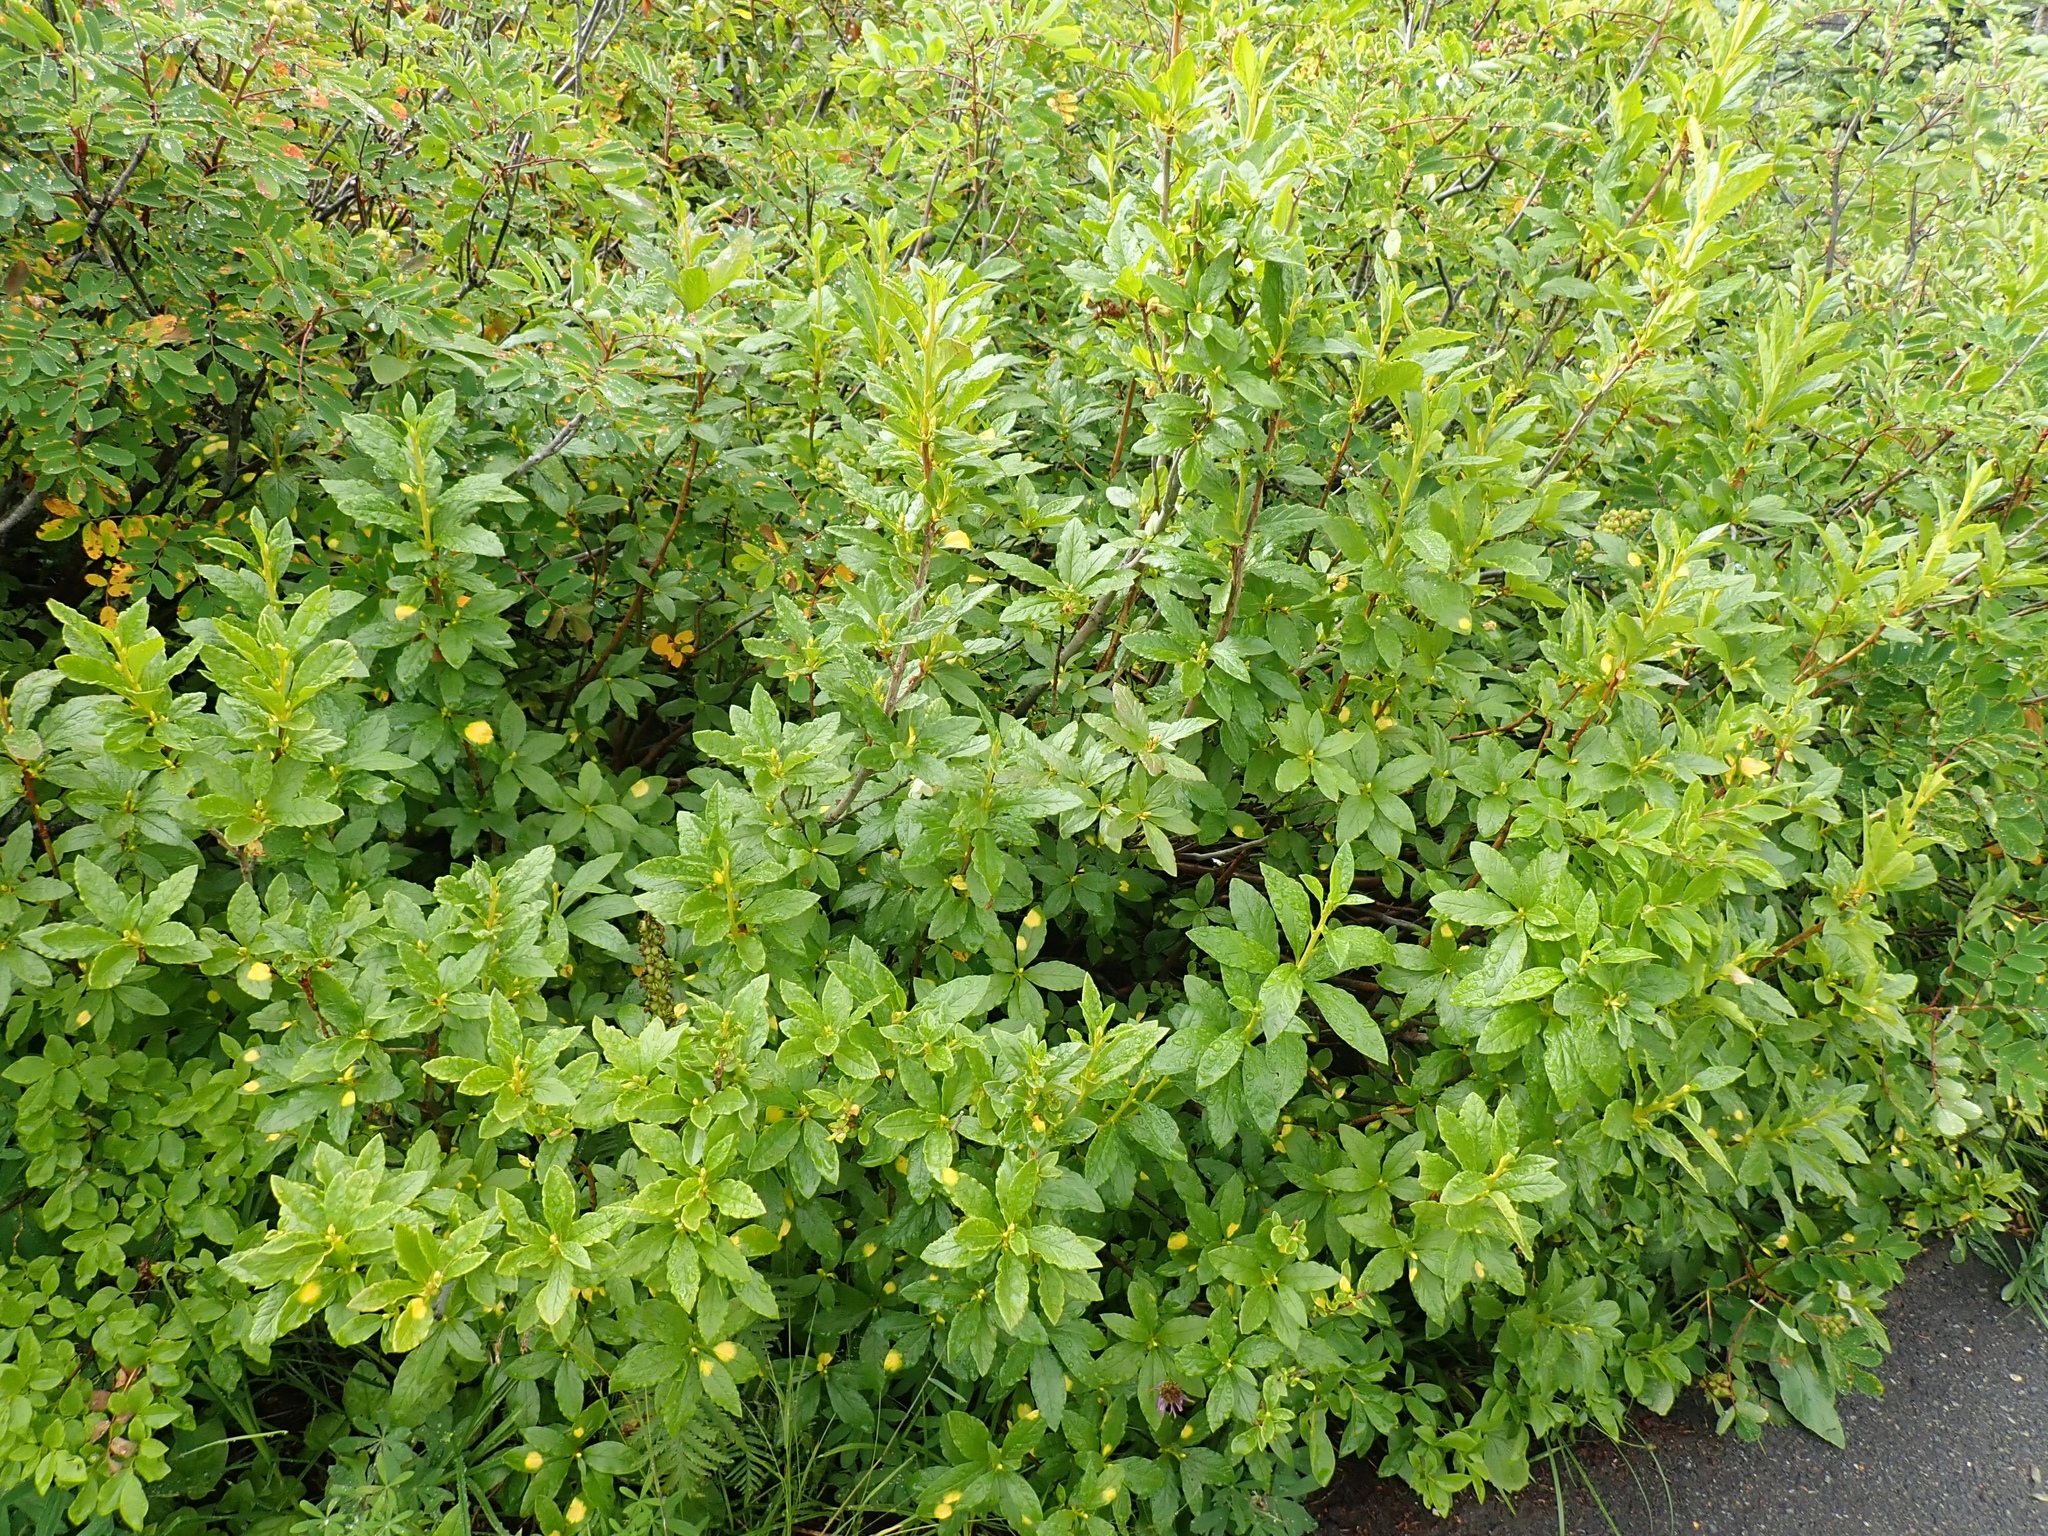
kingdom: Plantae
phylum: Tracheophyta
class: Magnoliopsida
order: Ericales
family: Ericaceae
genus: Rhododendron
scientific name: Rhododendron albiflorum
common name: White rhododendron
